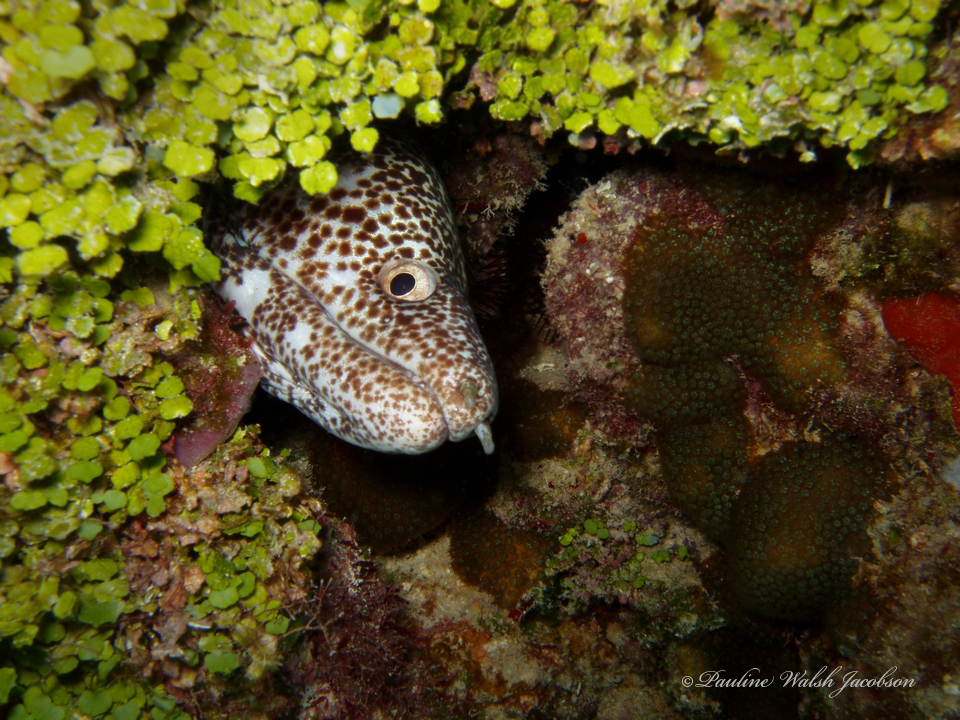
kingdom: Animalia
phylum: Chordata
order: Anguilliformes
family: Muraenidae
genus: Gymnothorax
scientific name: Gymnothorax moringa
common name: Spotted moray
